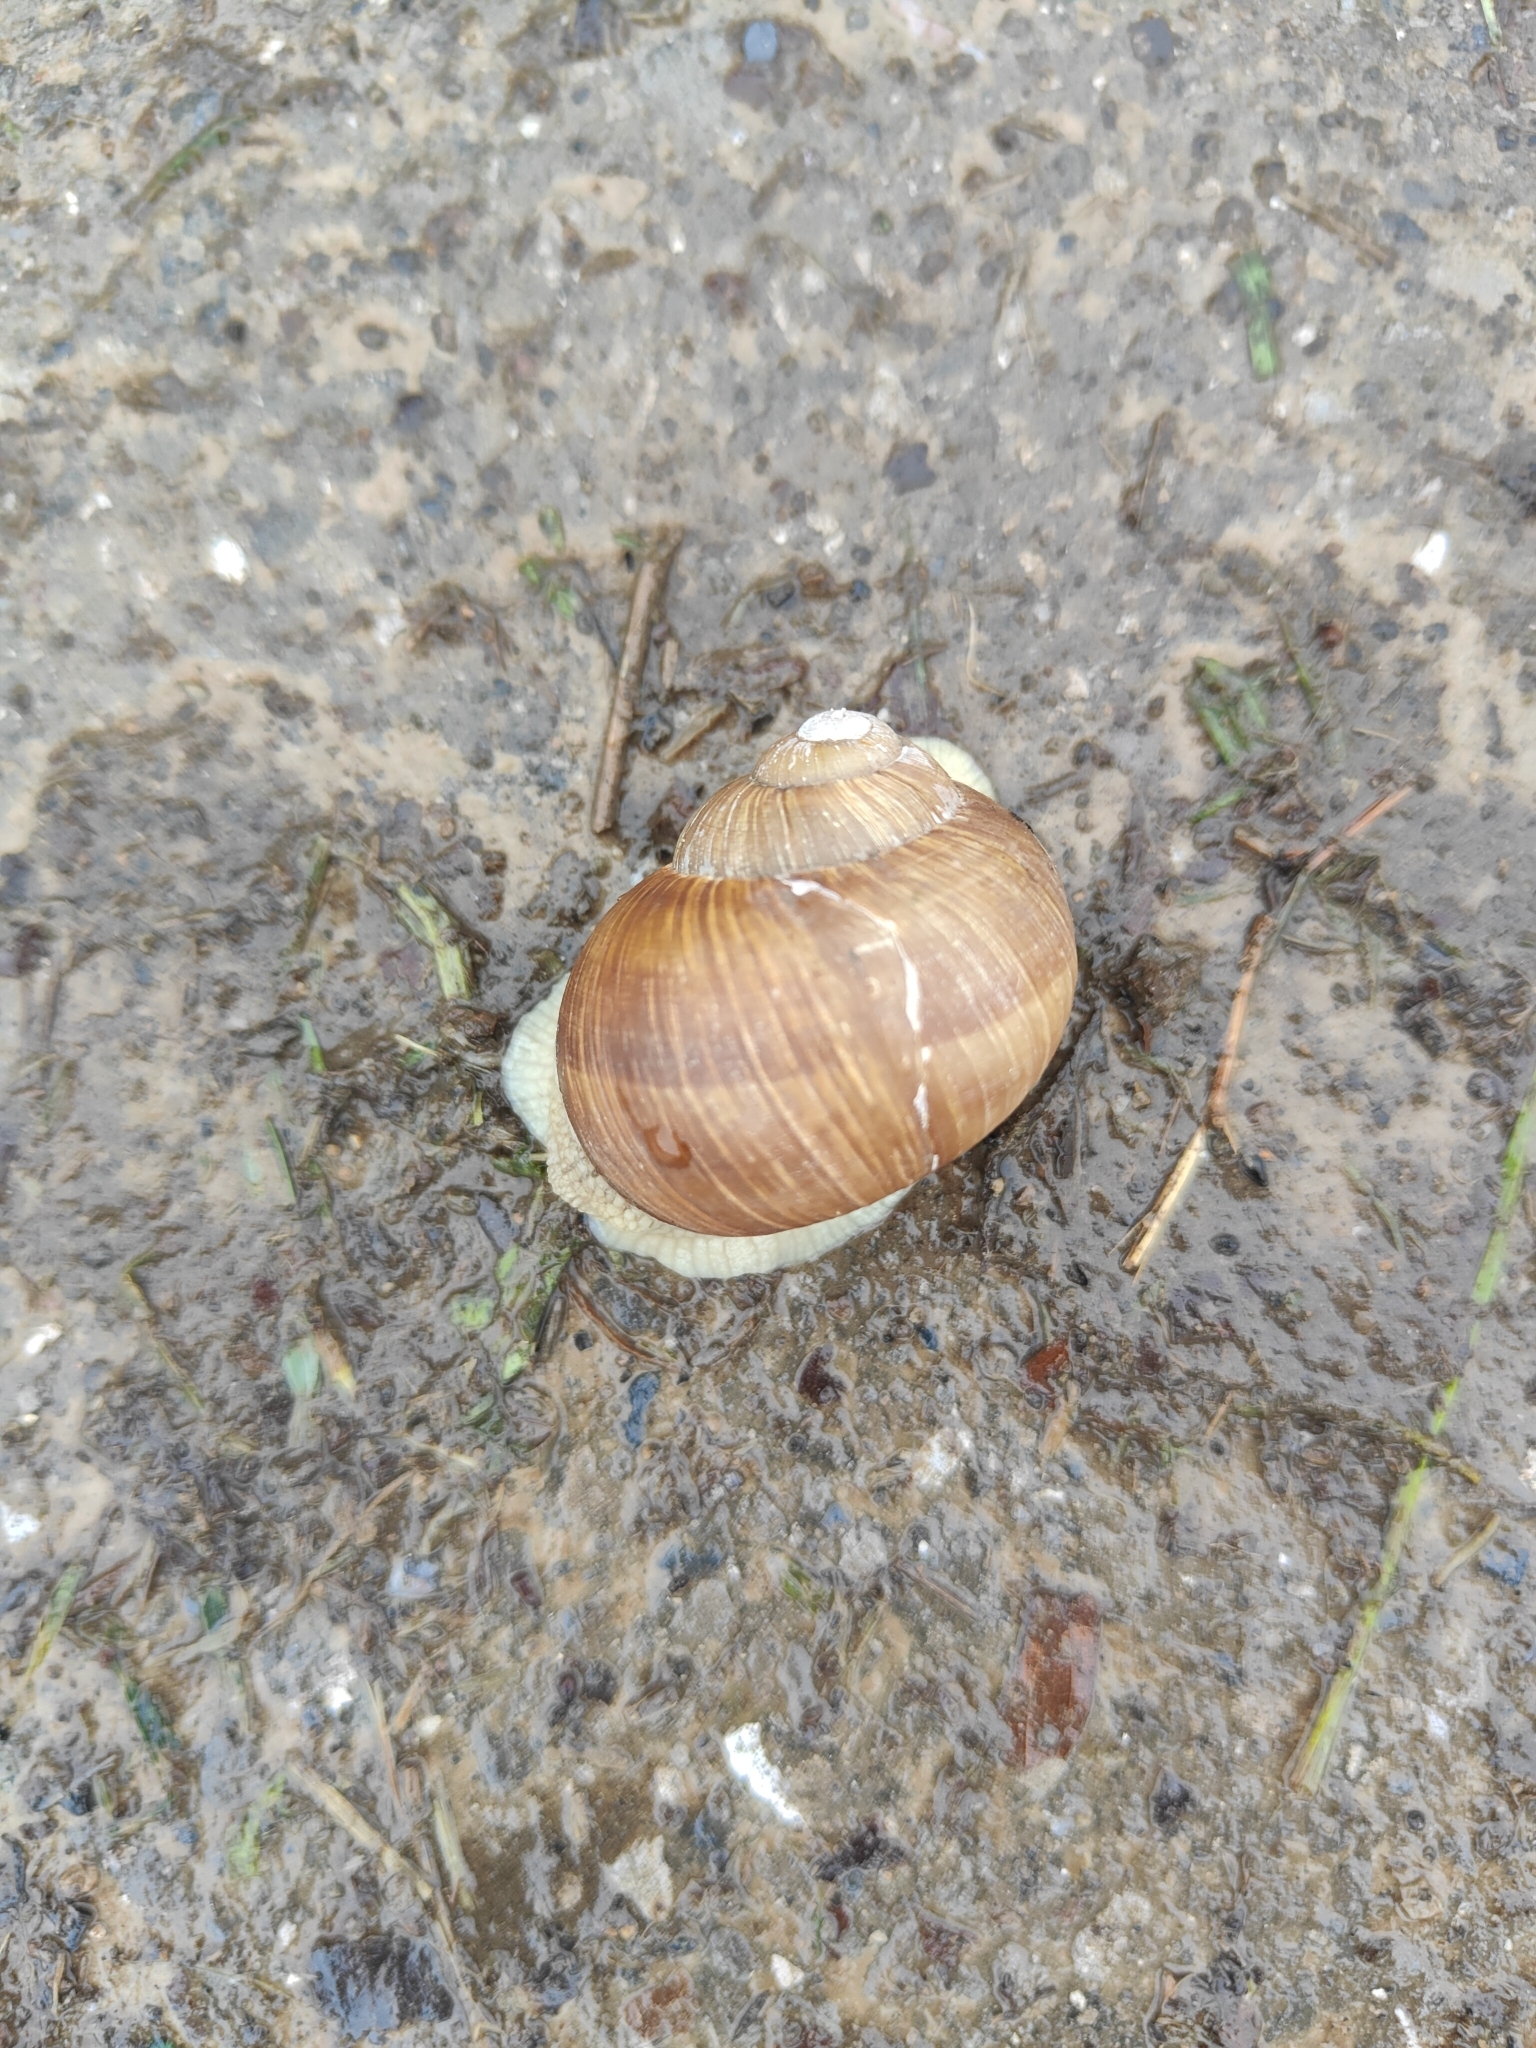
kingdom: Animalia
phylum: Mollusca
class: Gastropoda
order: Stylommatophora
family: Helicidae
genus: Helix
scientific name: Helix pomatia
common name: Roman snail
